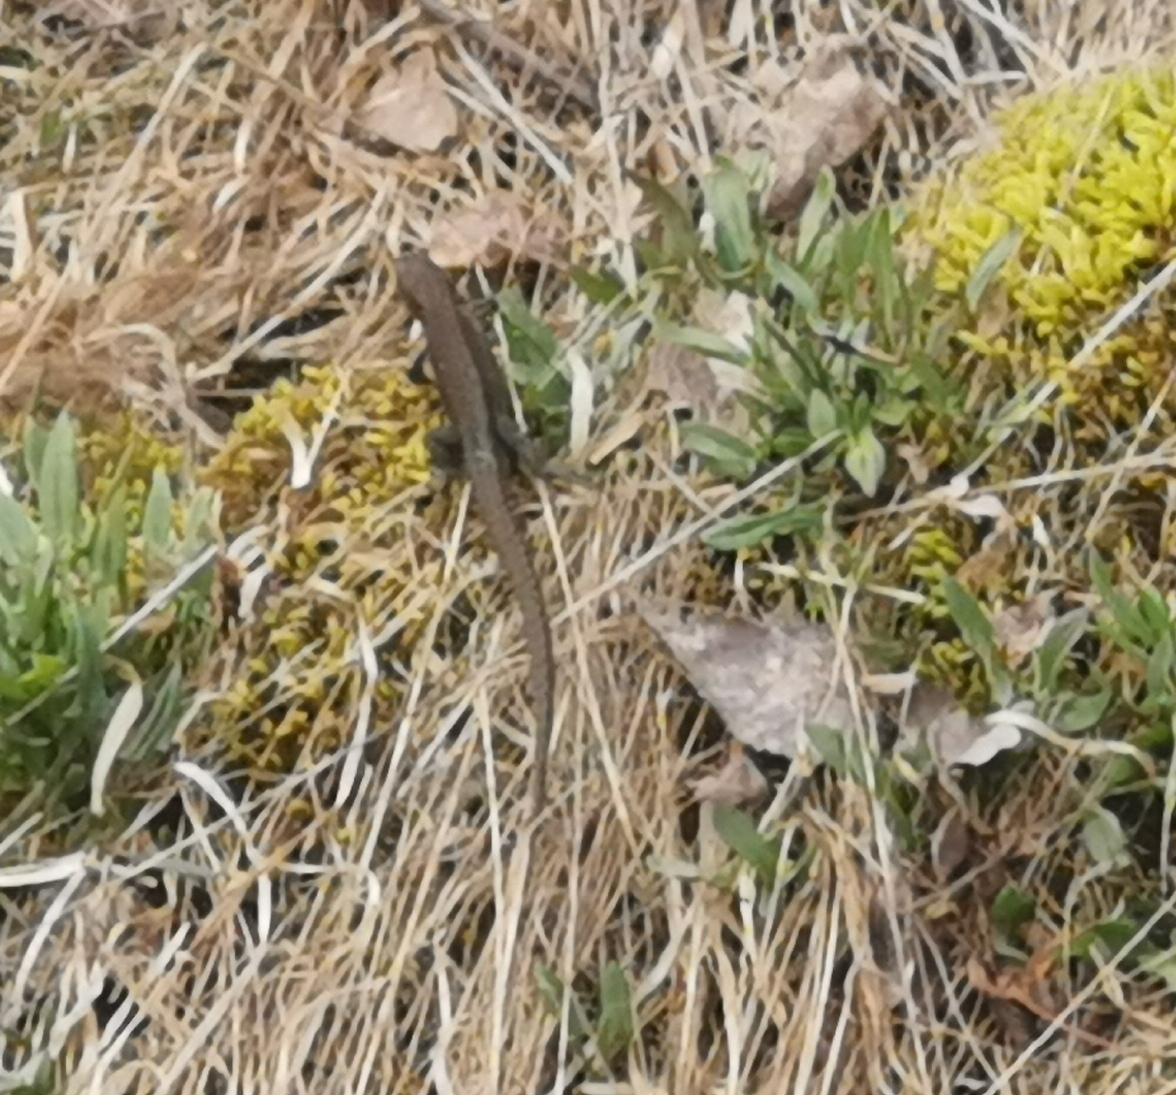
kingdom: Animalia
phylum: Chordata
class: Squamata
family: Lacertidae
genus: Zootoca
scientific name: Zootoca vivipara
